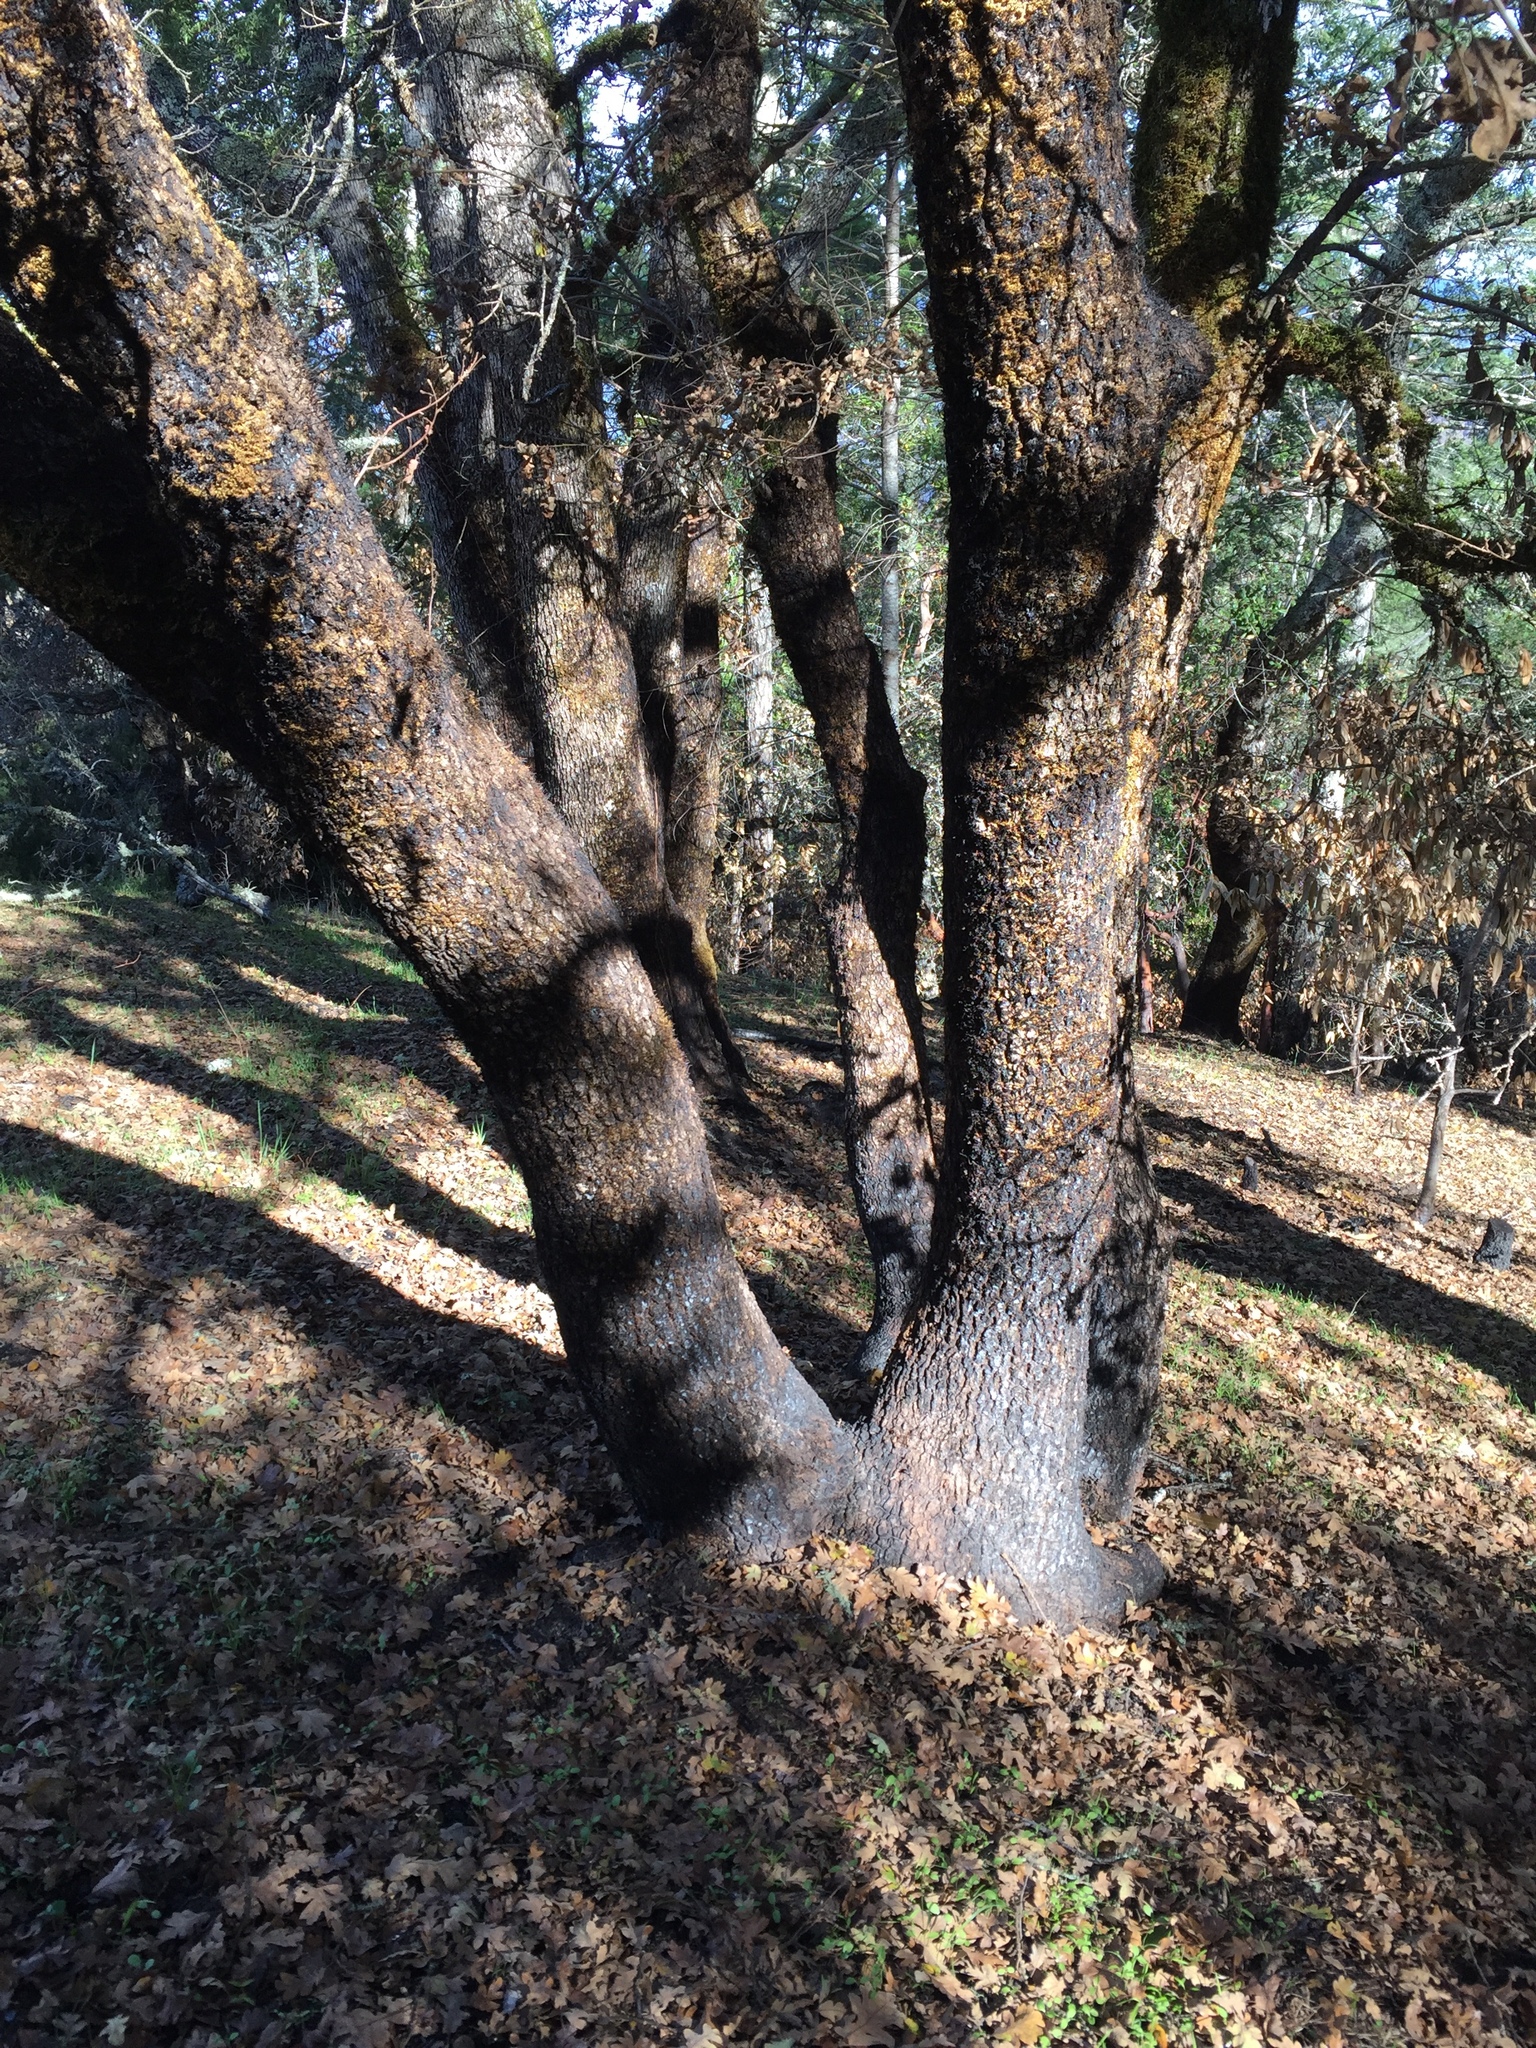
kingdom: Plantae
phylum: Tracheophyta
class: Magnoliopsida
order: Fagales
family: Fagaceae
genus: Quercus
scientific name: Quercus garryana
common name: Garry oak
